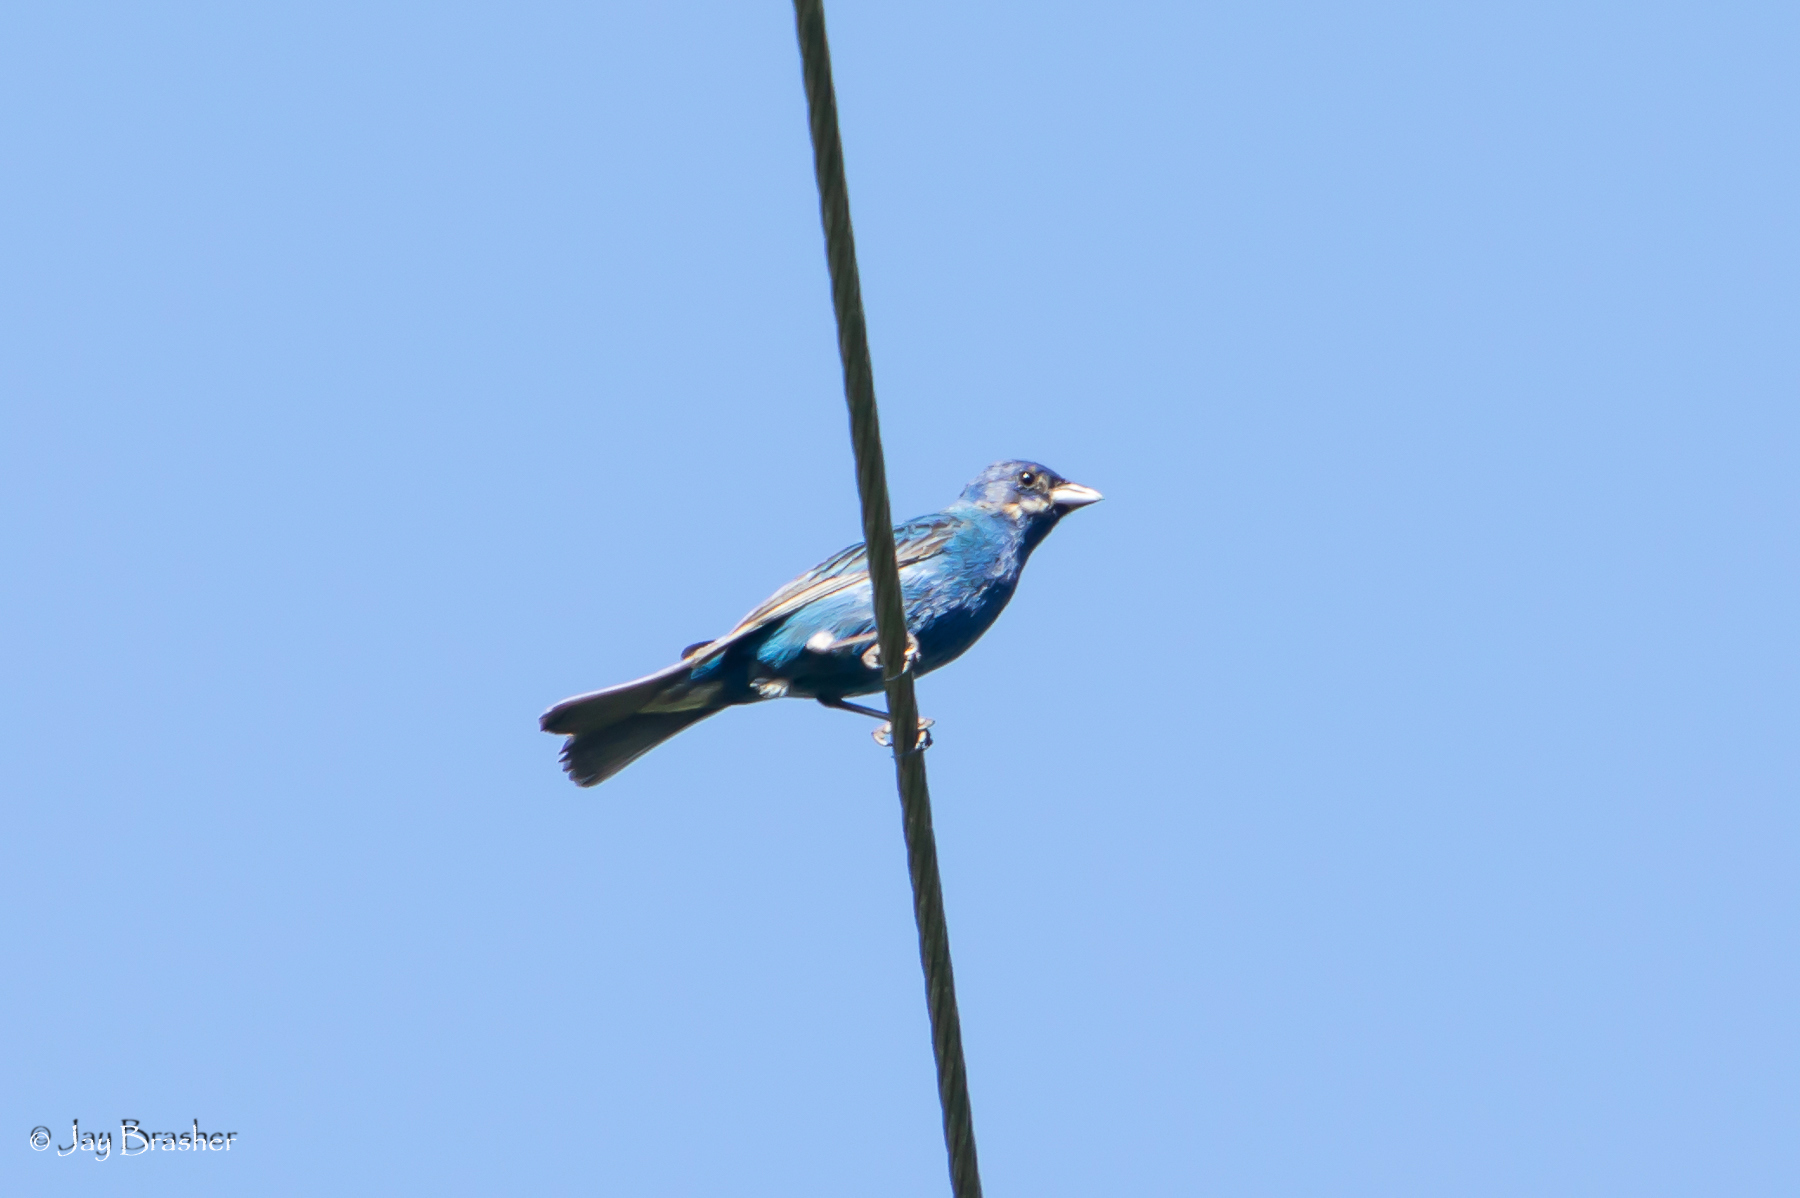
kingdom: Animalia
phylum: Chordata
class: Aves
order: Passeriformes
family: Cardinalidae
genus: Passerina
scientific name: Passerina cyanea
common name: Indigo bunting
